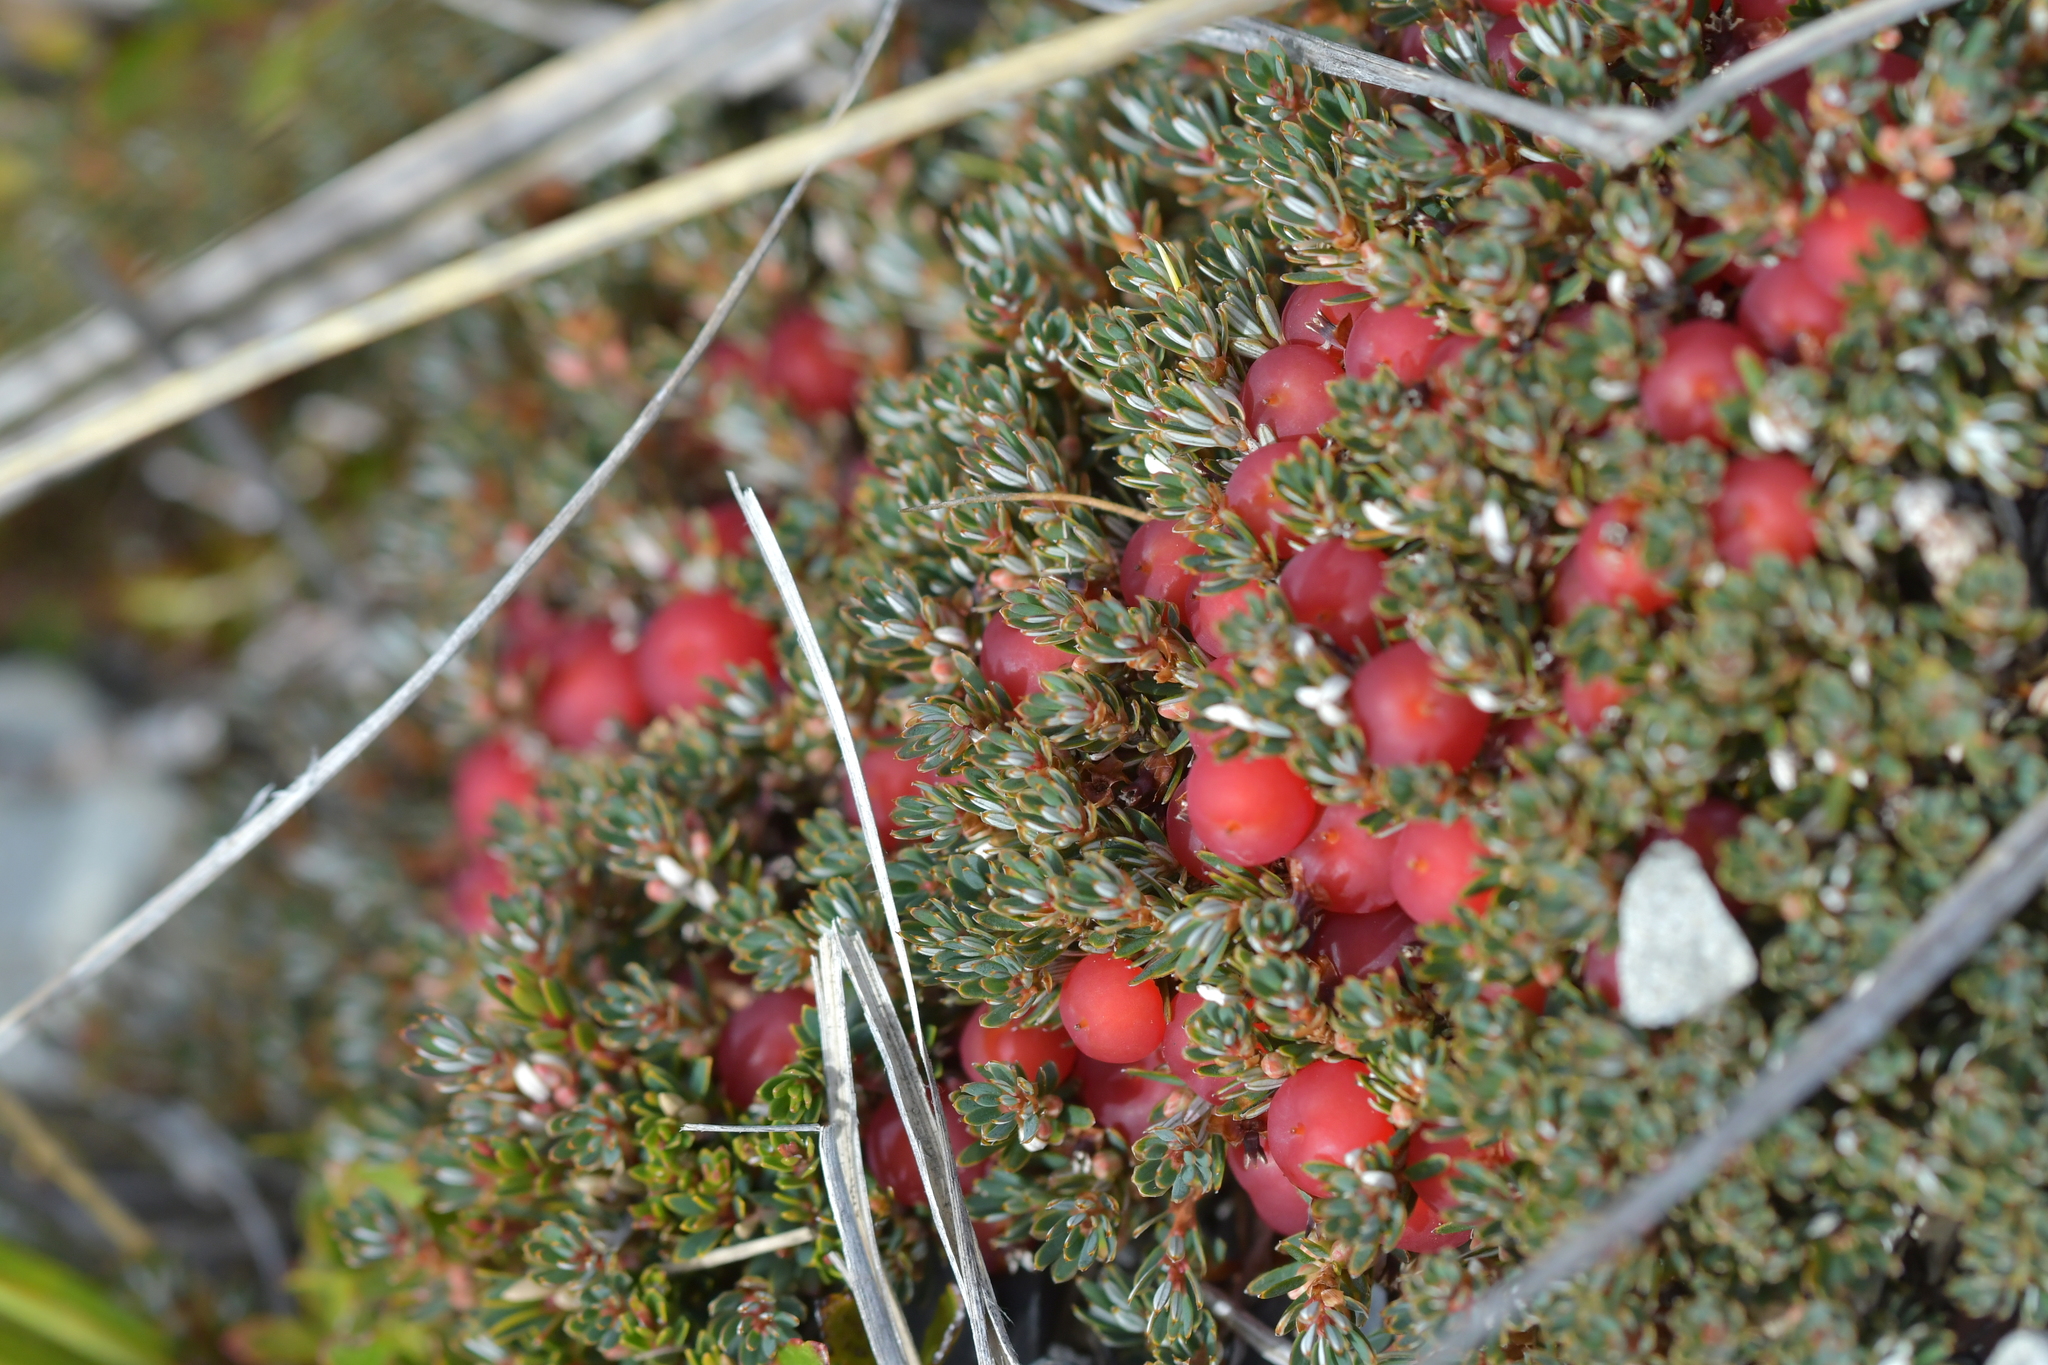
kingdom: Plantae
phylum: Tracheophyta
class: Magnoliopsida
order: Ericales
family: Ericaceae
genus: Montitega
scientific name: Montitega dealbata
